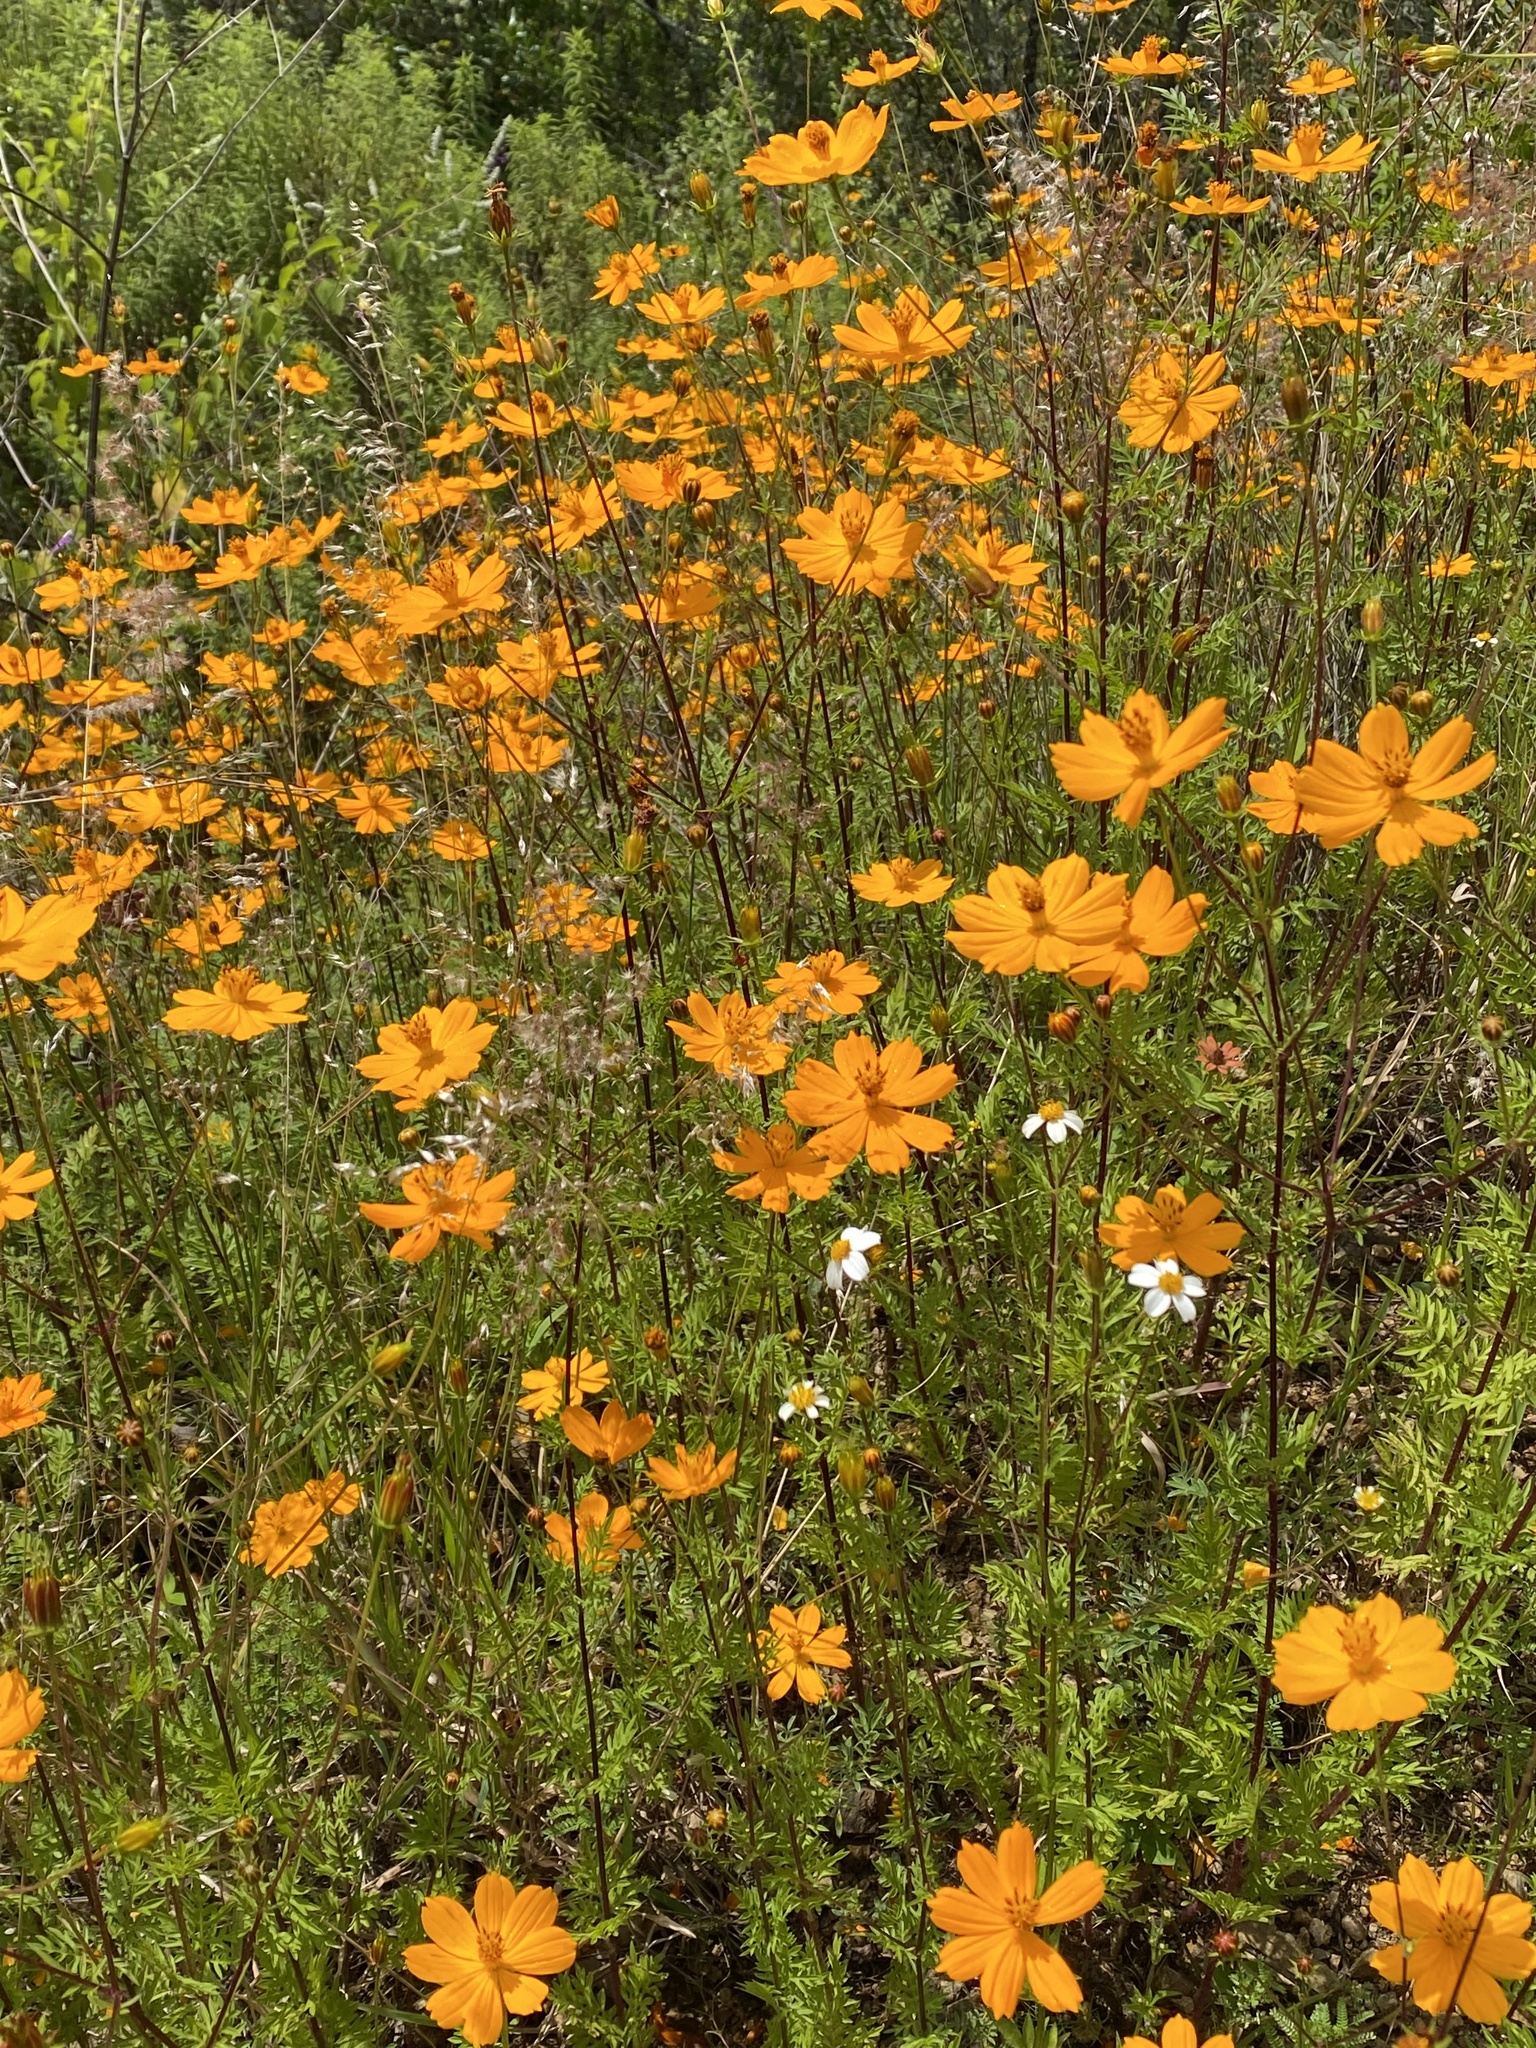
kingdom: Plantae
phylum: Tracheophyta
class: Magnoliopsida
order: Asterales
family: Asteraceae
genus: Cosmos
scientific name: Cosmos sulphureus
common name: Sulphur cosmos
